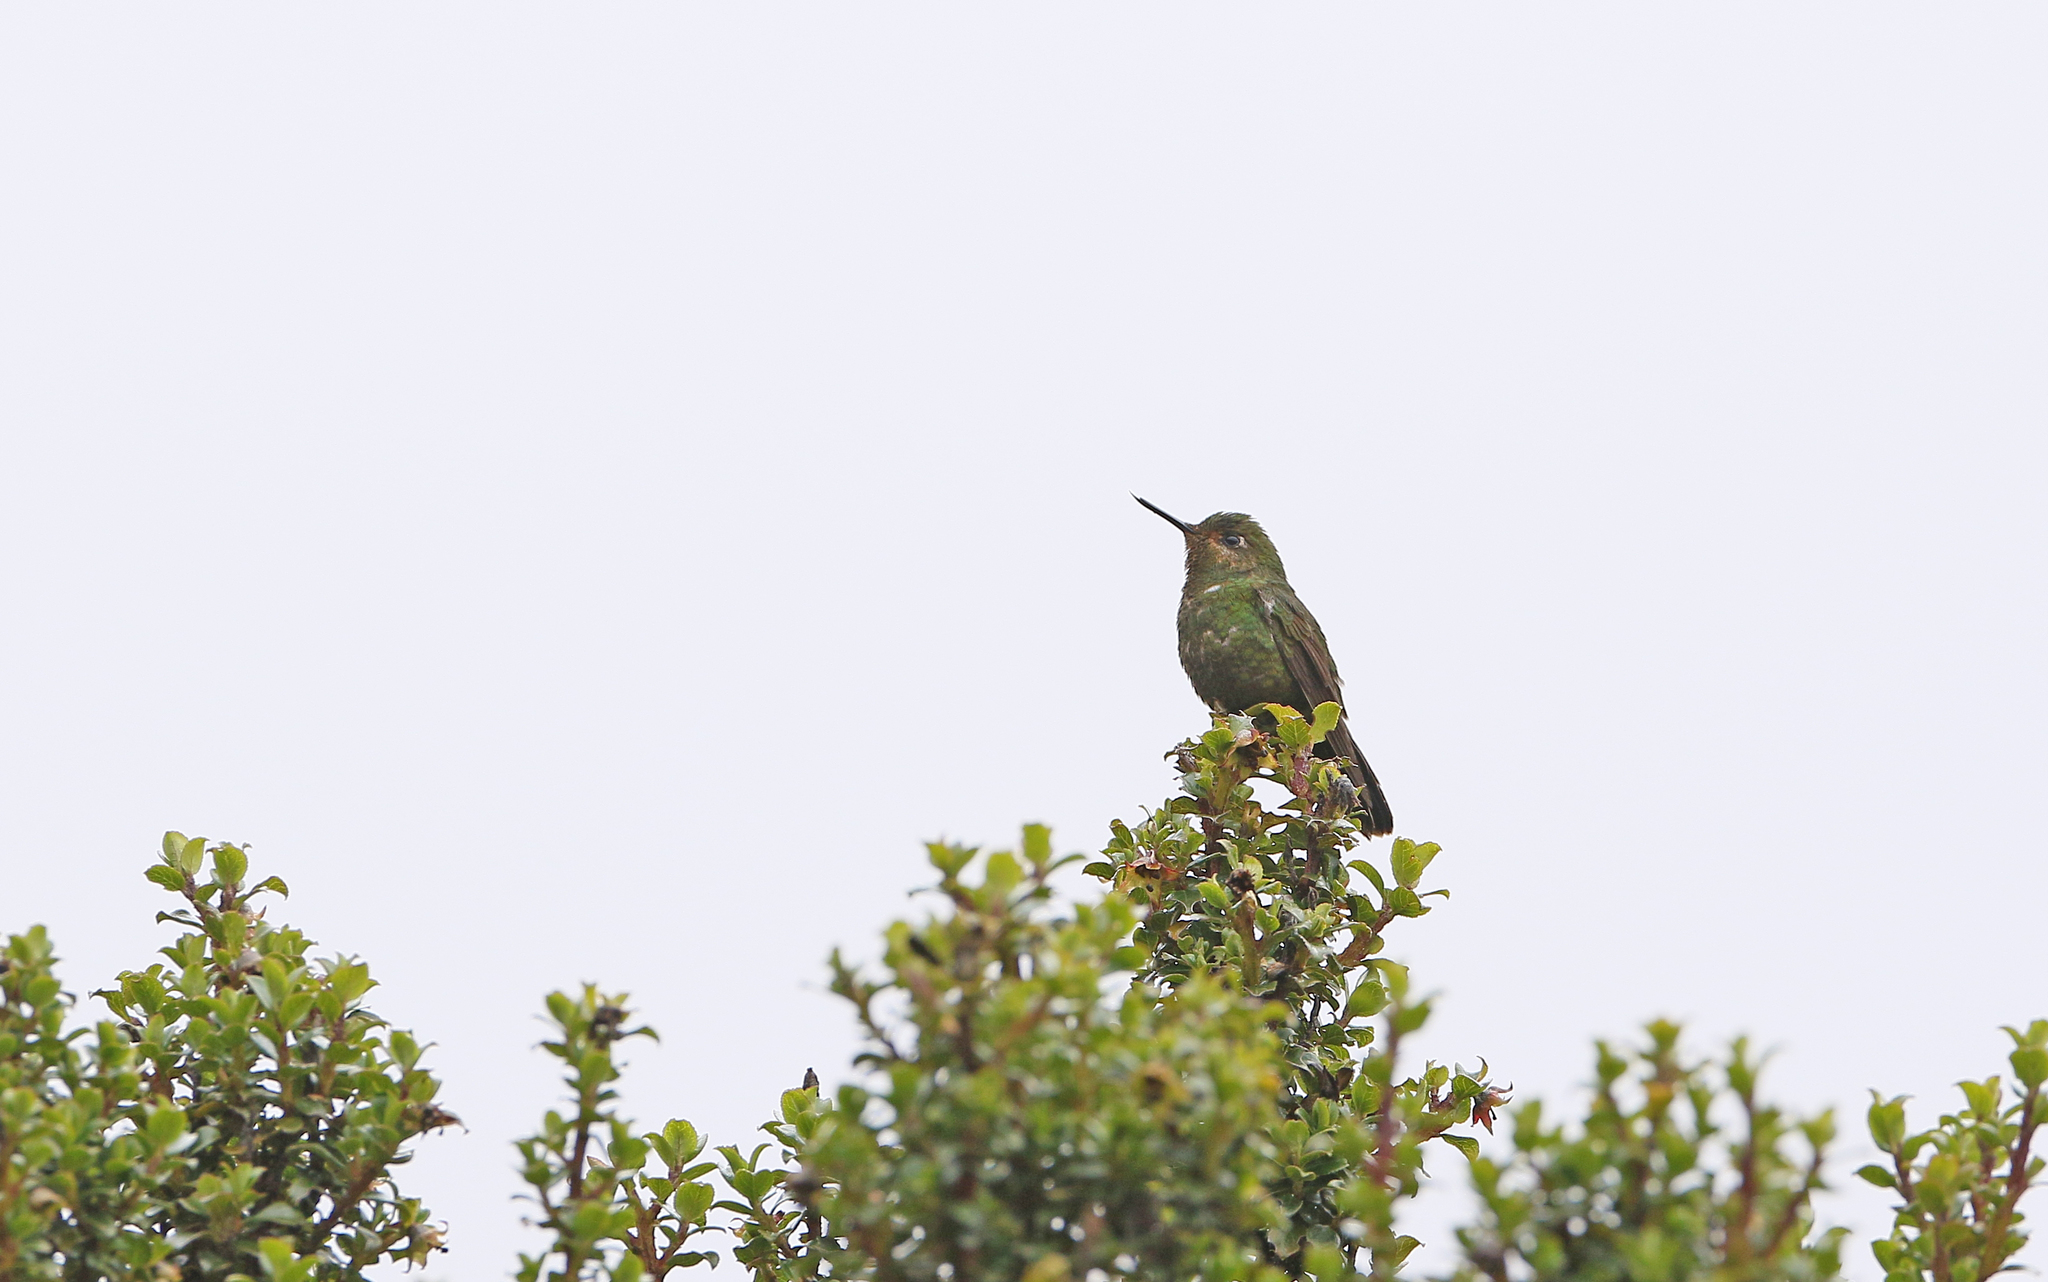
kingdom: Animalia
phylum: Chordata
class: Aves
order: Apodiformes
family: Trochilidae
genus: Metallura
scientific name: Metallura williami
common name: Viridian metaltail
